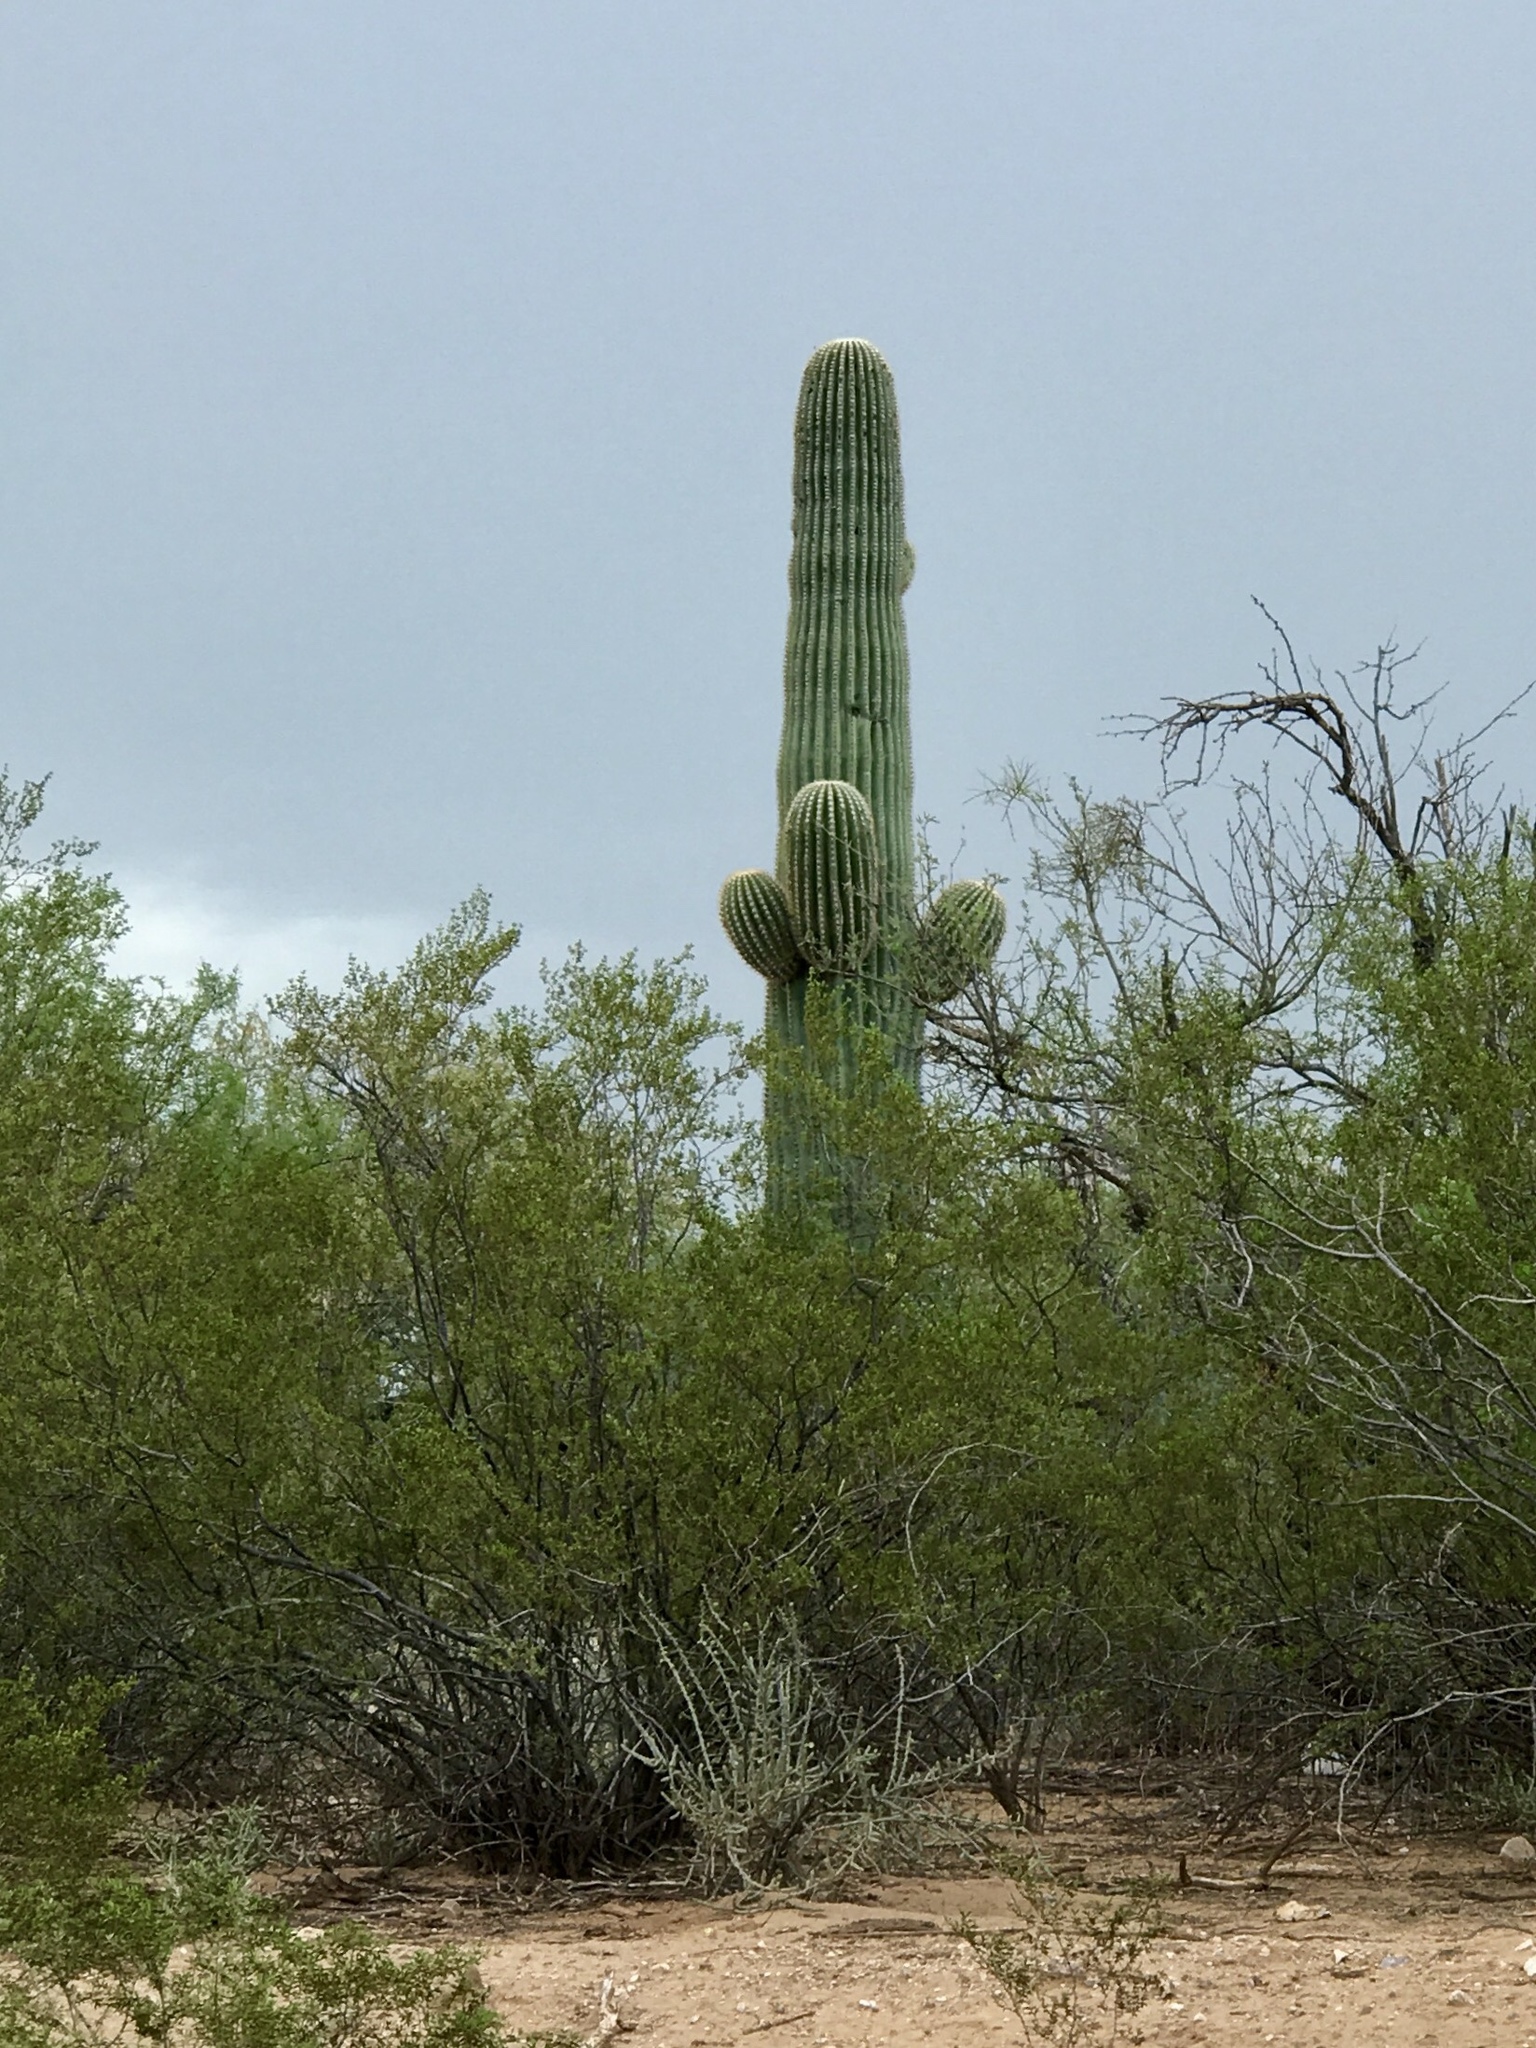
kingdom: Plantae
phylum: Tracheophyta
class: Magnoliopsida
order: Caryophyllales
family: Cactaceae
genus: Carnegiea
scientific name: Carnegiea gigantea
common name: Saguaro
